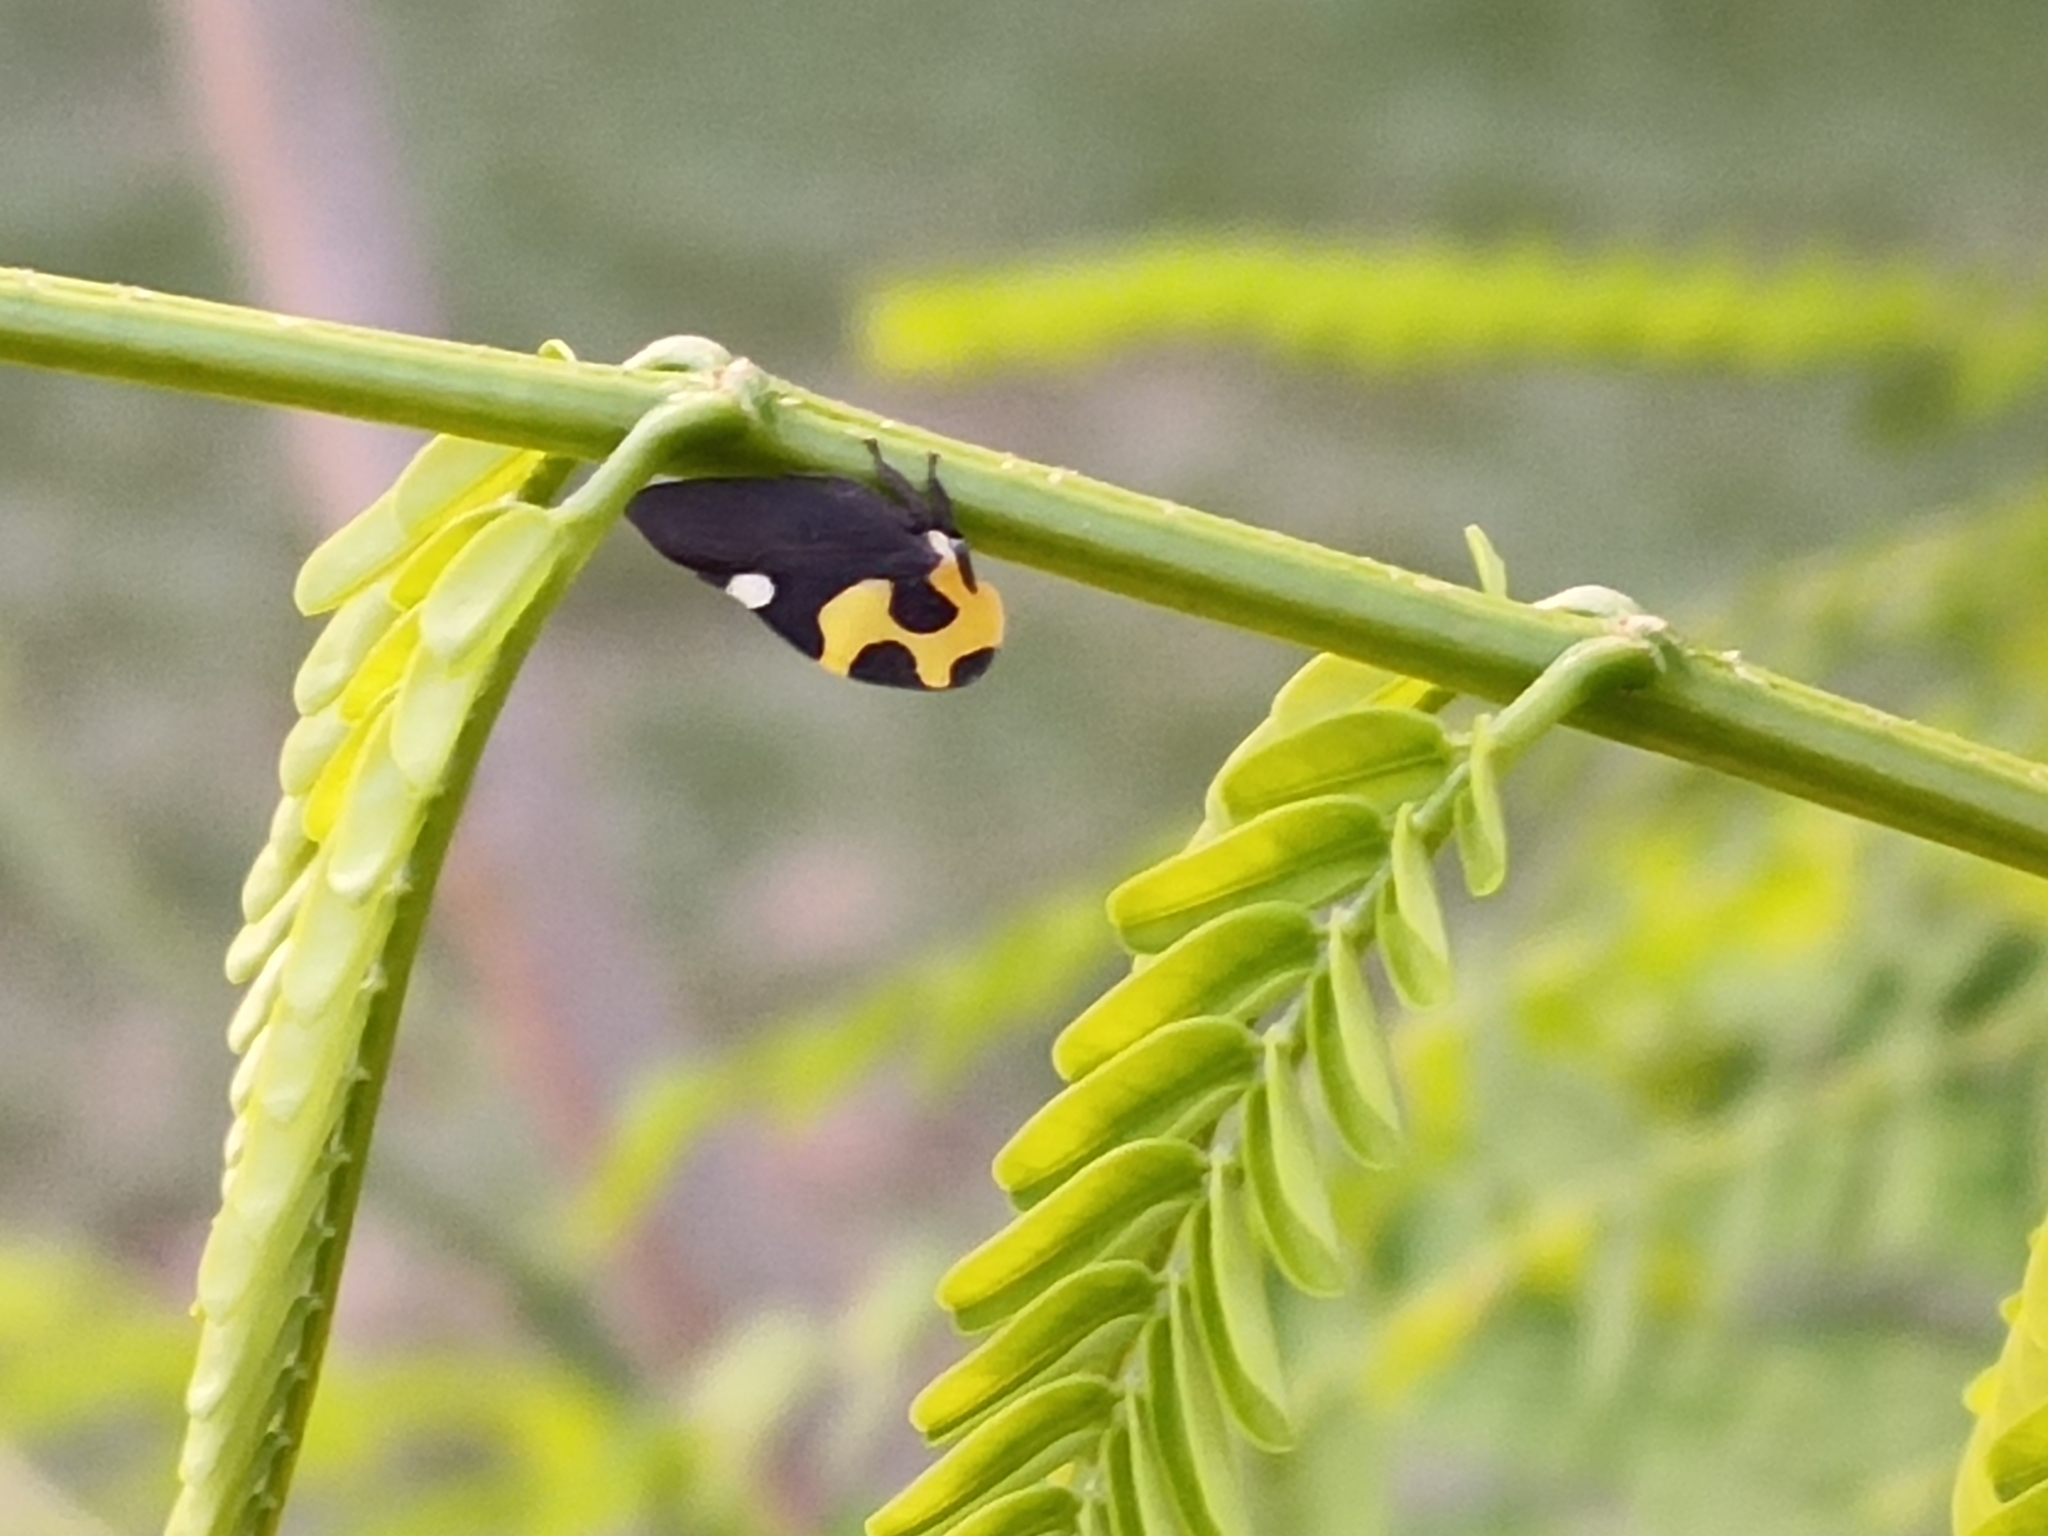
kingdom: Animalia
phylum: Arthropoda
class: Insecta
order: Hemiptera
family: Membracidae
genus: Membracis
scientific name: Membracis mexicana
